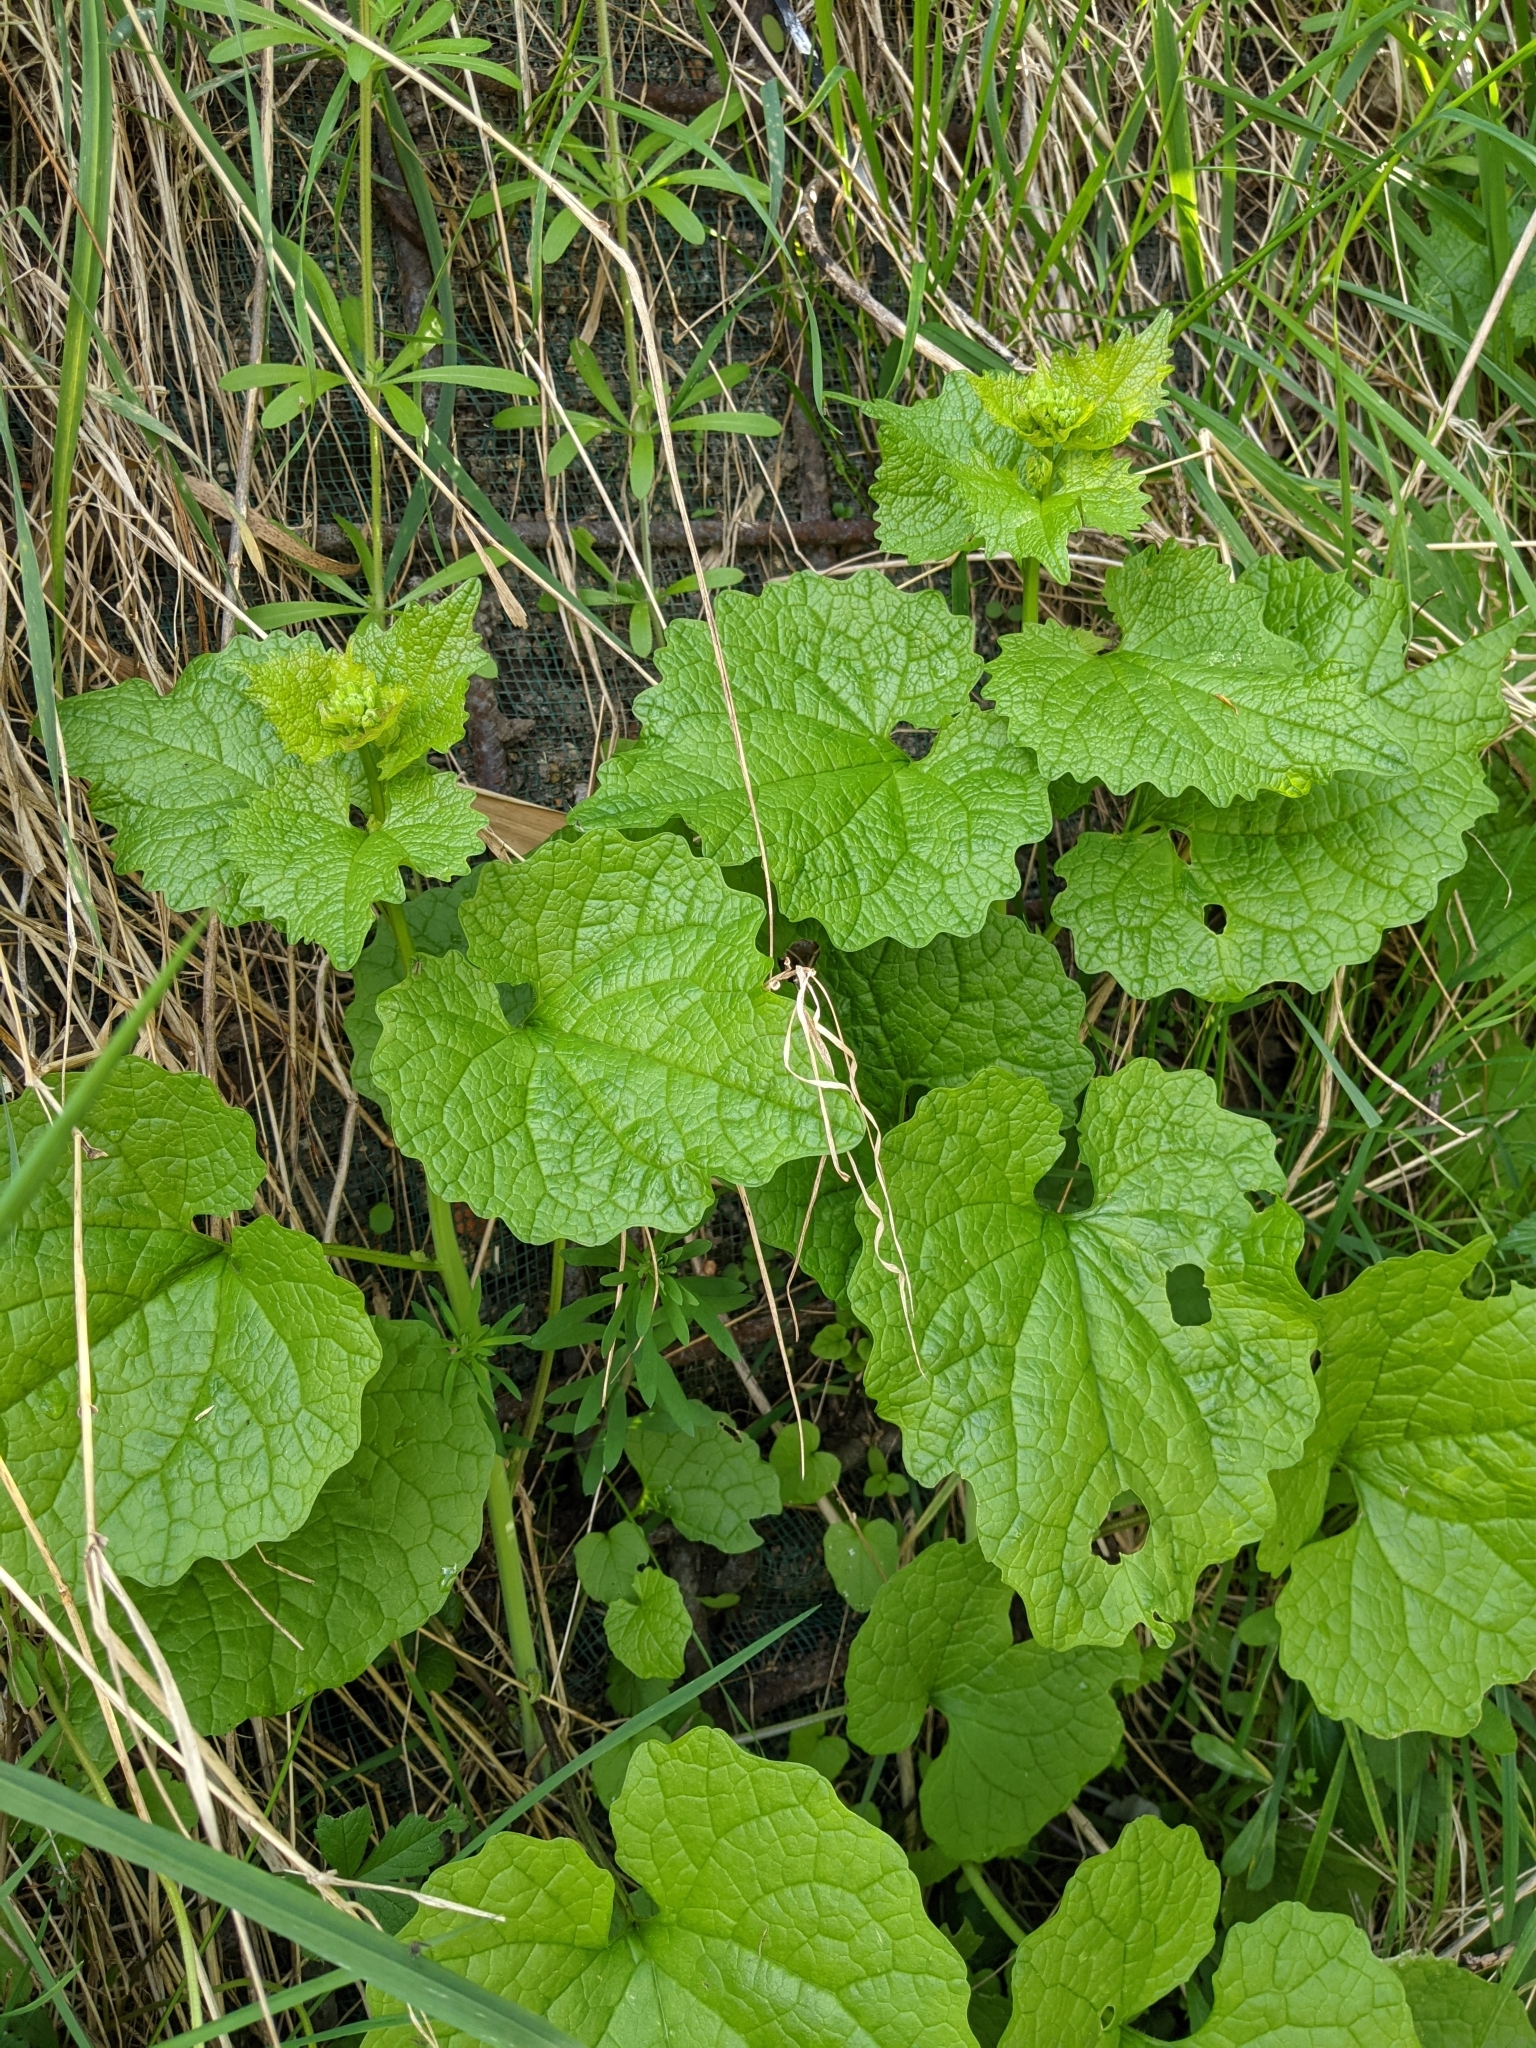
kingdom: Plantae
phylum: Tracheophyta
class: Magnoliopsida
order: Brassicales
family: Brassicaceae
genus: Alliaria
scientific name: Alliaria petiolata
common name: Garlic mustard
